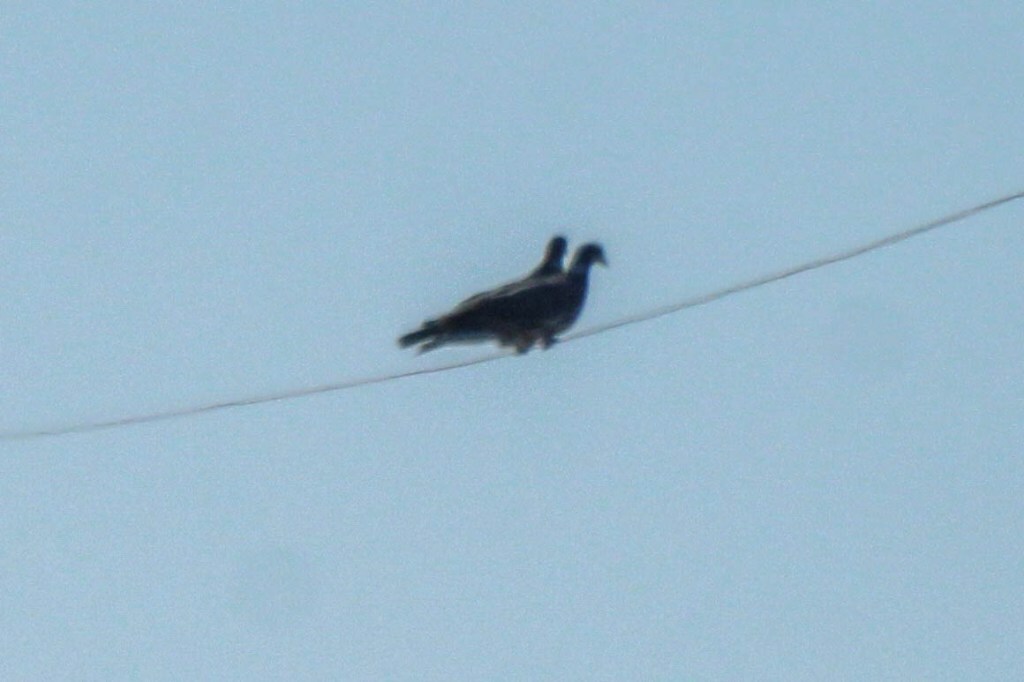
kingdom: Animalia
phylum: Chordata
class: Aves
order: Columbiformes
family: Columbidae
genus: Columba
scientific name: Columba palumbus
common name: Common wood pigeon
